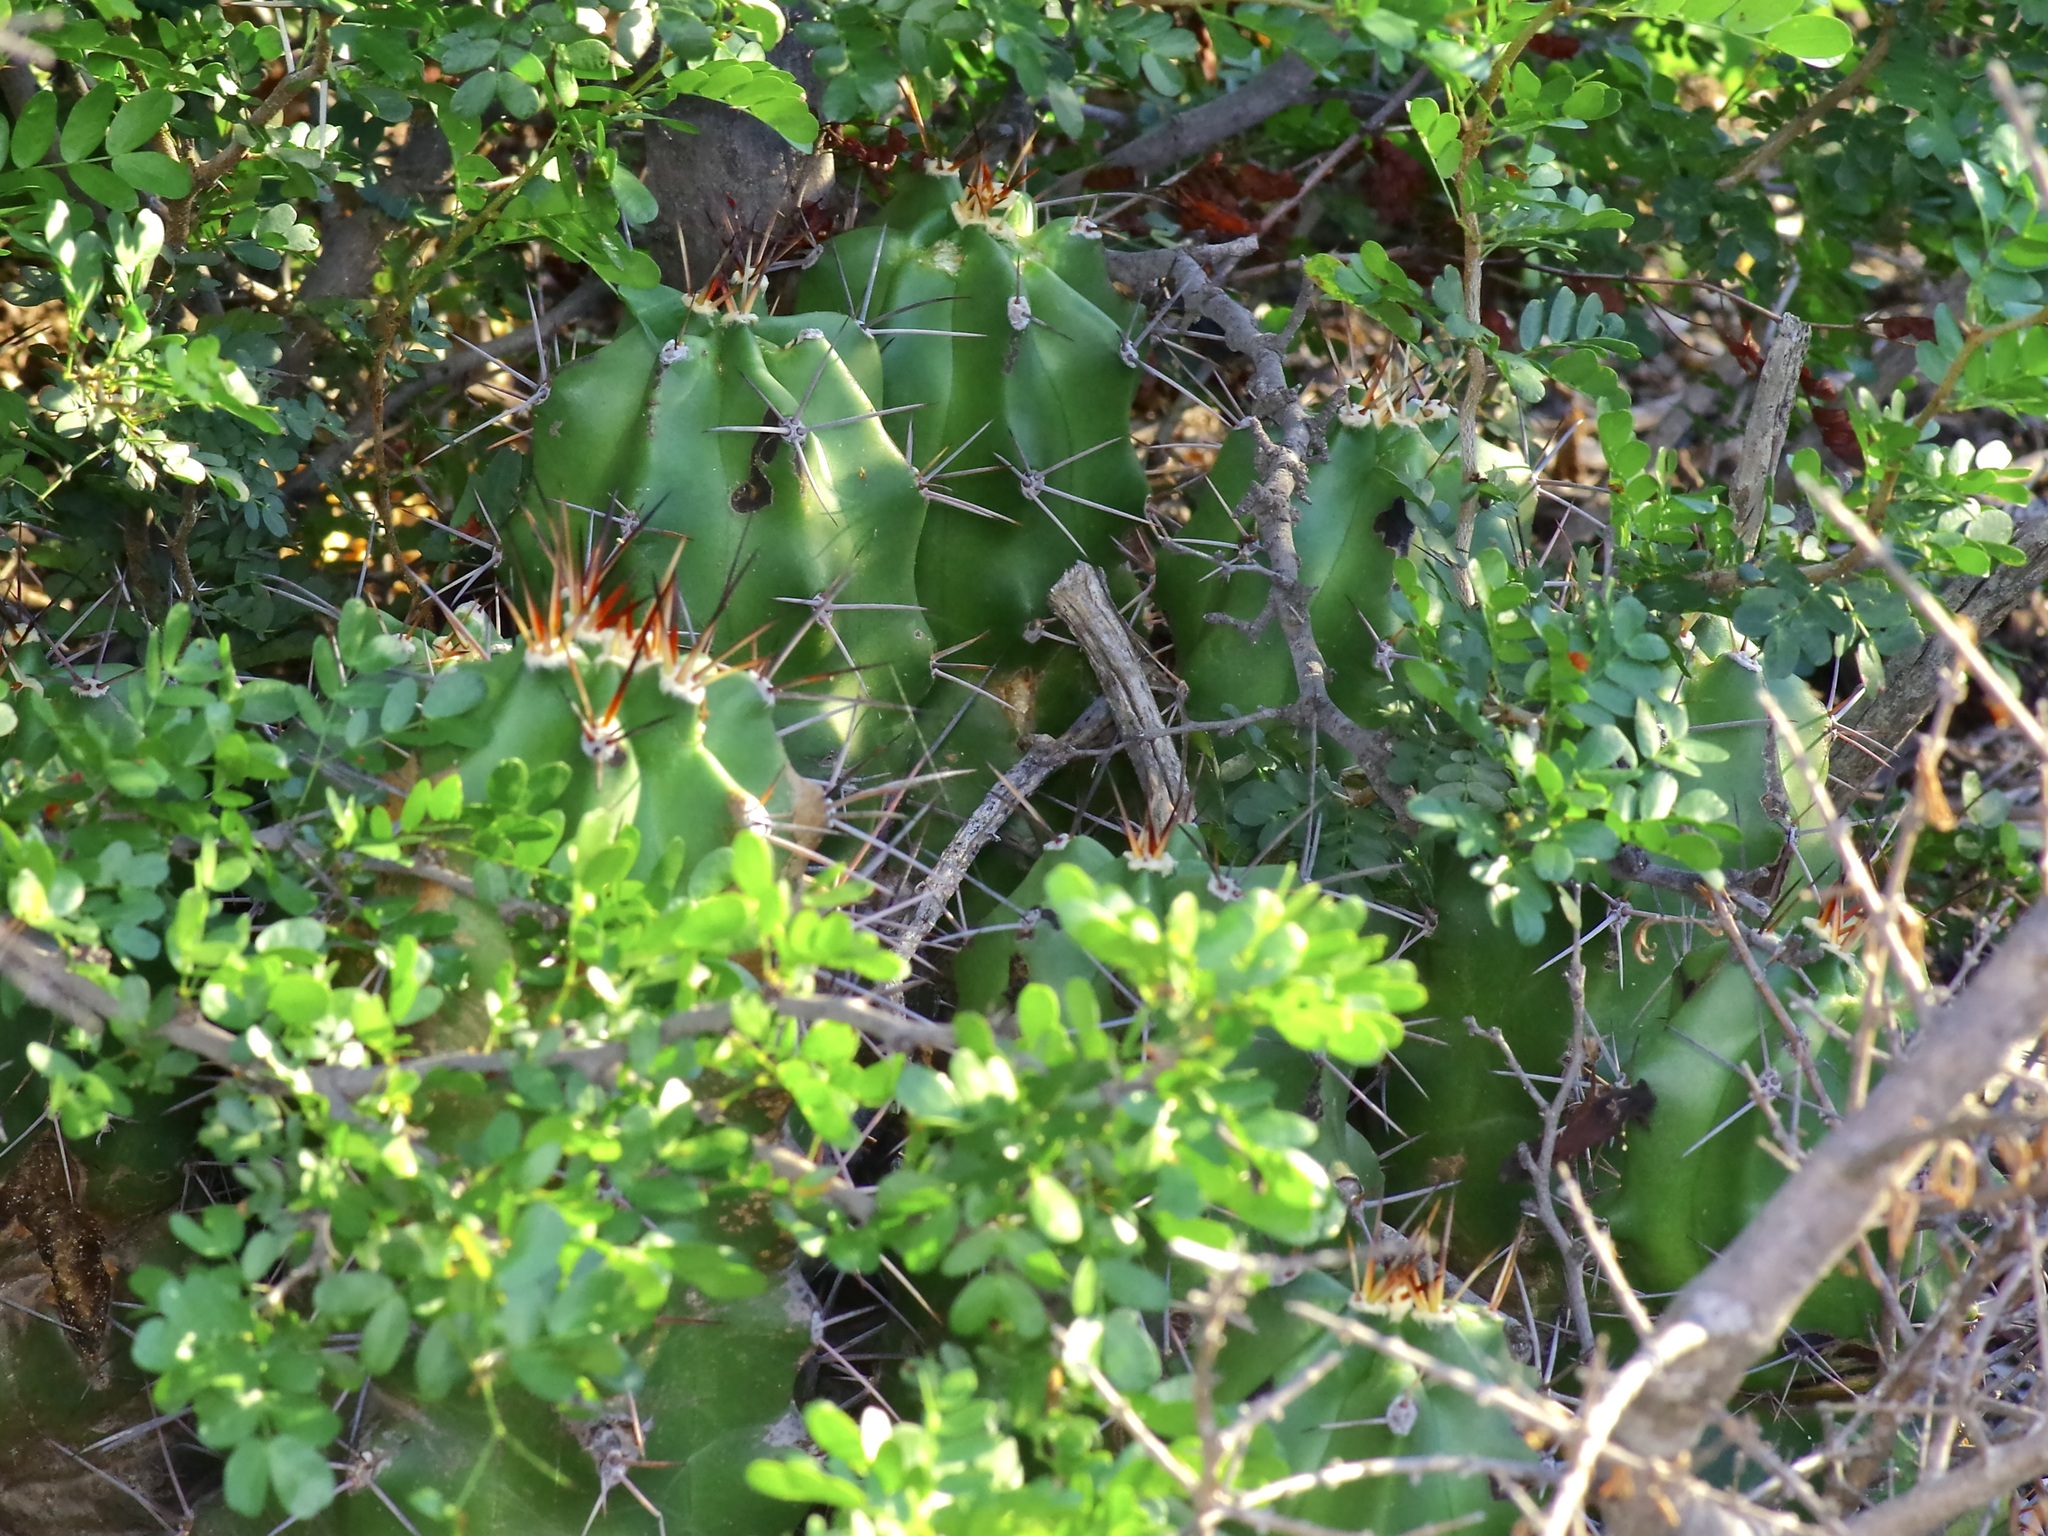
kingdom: Plantae
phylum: Tracheophyta
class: Magnoliopsida
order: Caryophyllales
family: Cactaceae
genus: Echinocereus
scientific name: Echinocereus coccineus
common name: Scarlet hedgehog cactus
